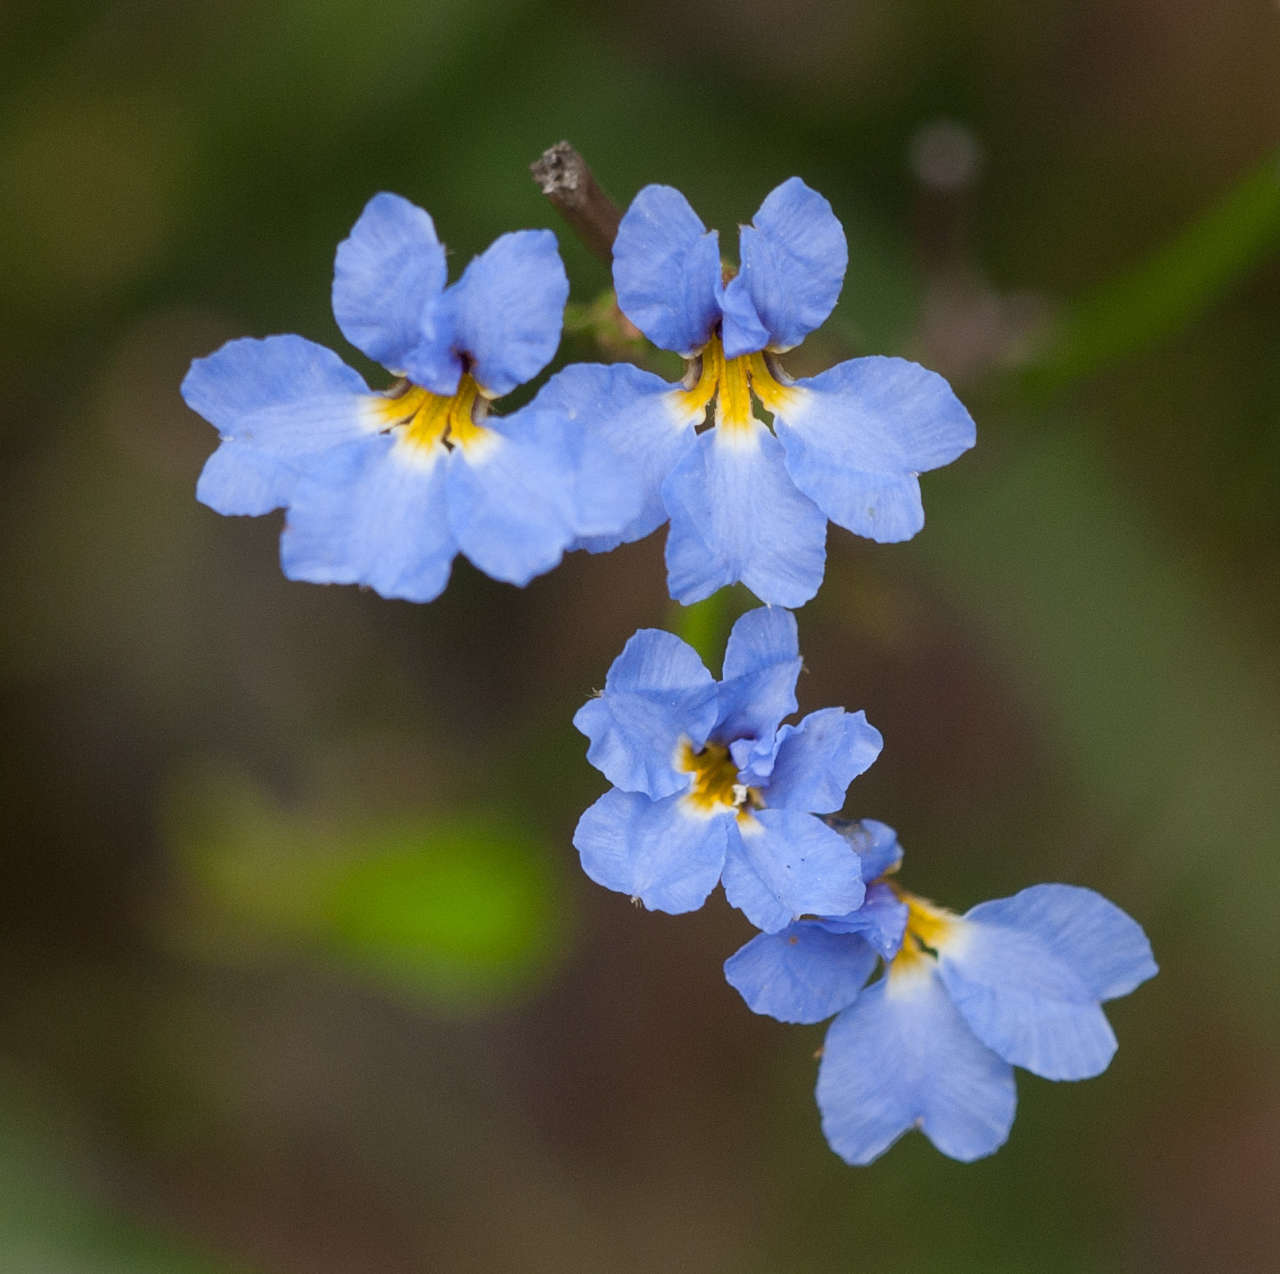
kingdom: Plantae
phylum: Tracheophyta
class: Magnoliopsida
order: Asterales
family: Goodeniaceae
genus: Dampiera
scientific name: Dampiera stricta
